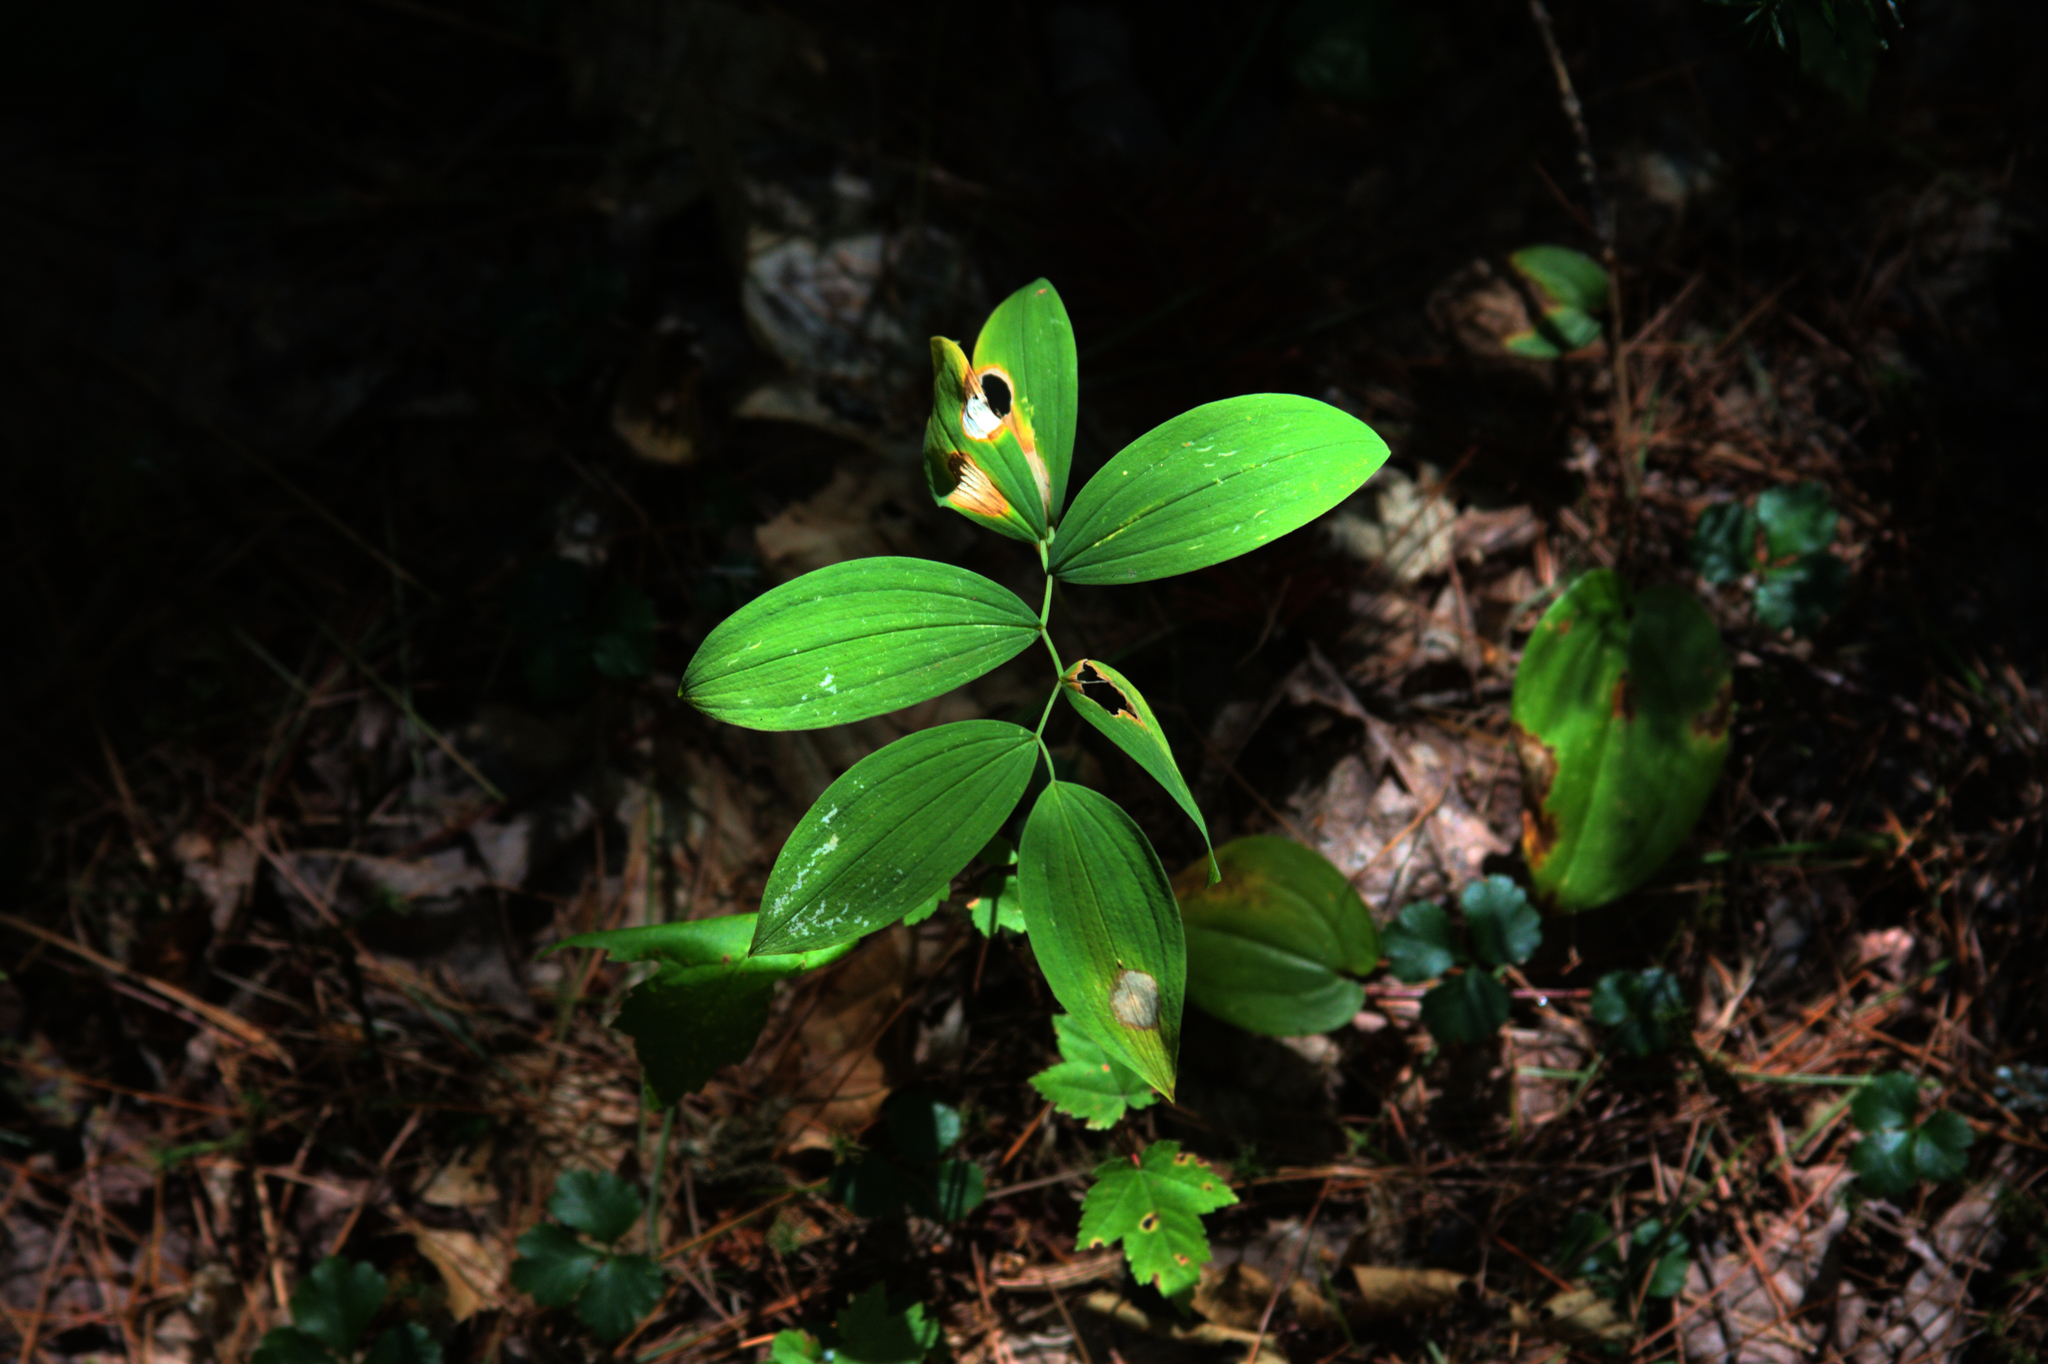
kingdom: Plantae
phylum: Tracheophyta
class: Liliopsida
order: Liliales
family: Colchicaceae
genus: Uvularia
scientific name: Uvularia sessilifolia
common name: Straw-lily
